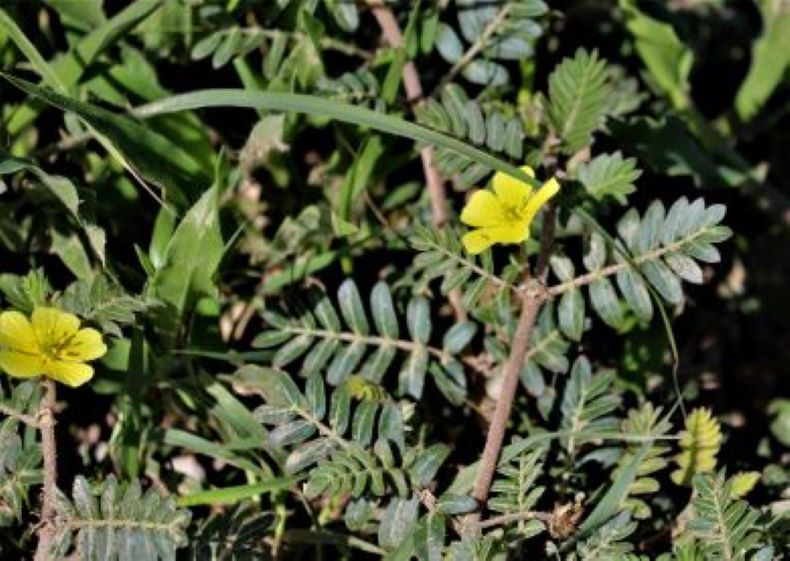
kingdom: Plantae
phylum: Tracheophyta
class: Magnoliopsida
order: Zygophyllales
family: Zygophyllaceae
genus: Tribulus
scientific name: Tribulus terrestris
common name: Puncturevine
